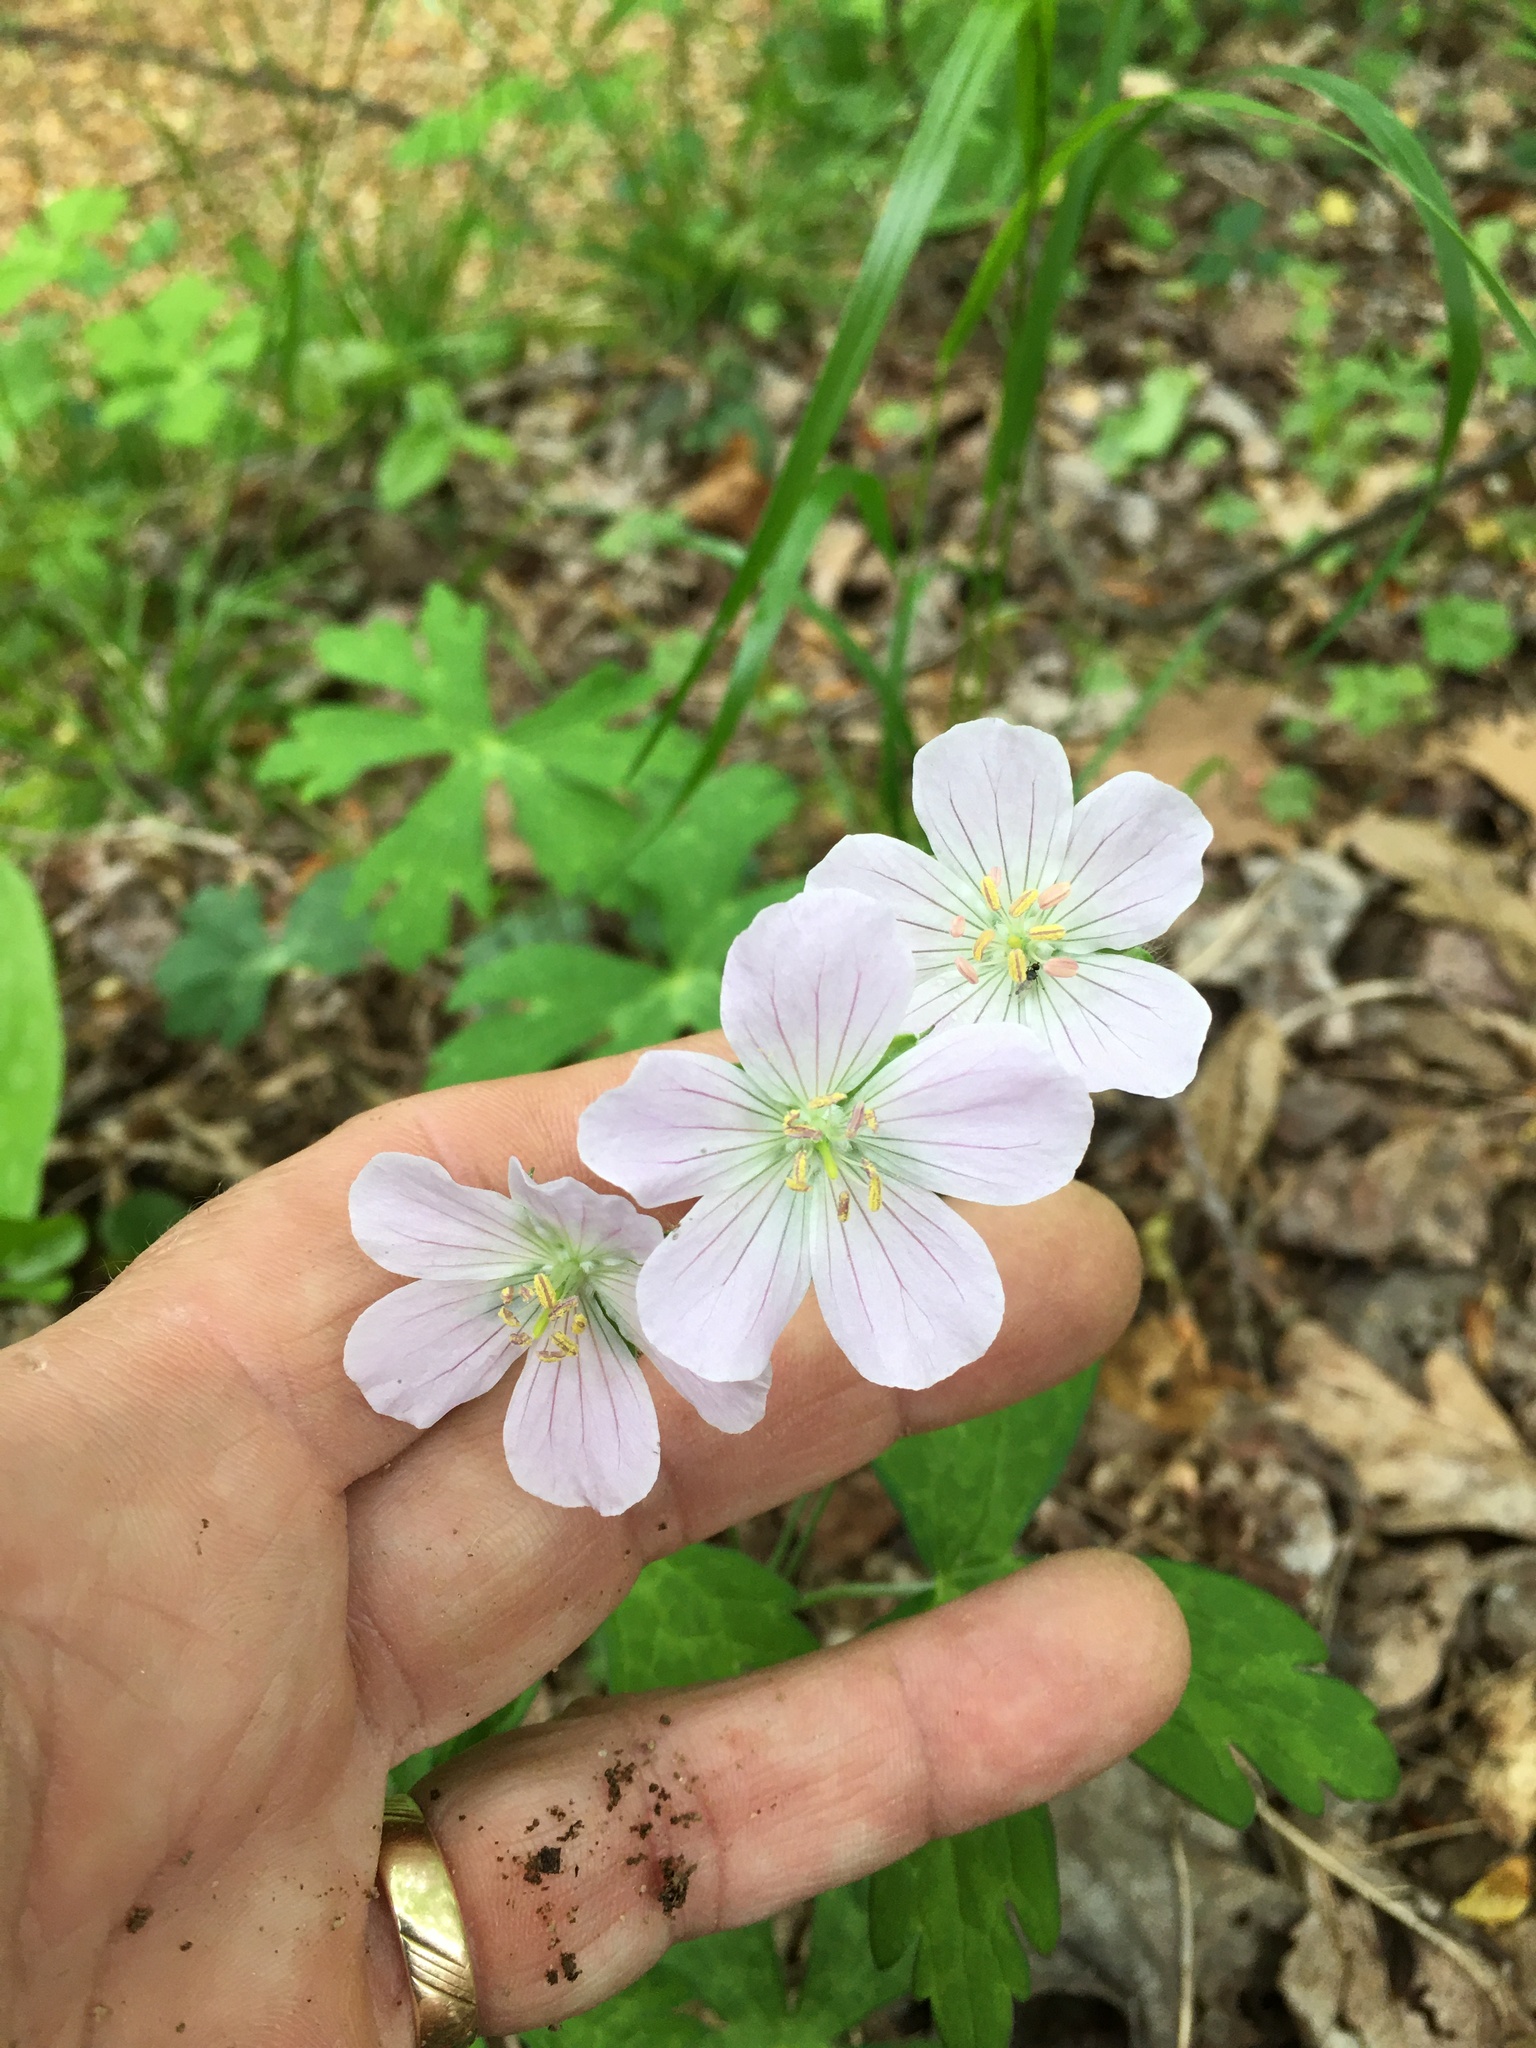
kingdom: Plantae
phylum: Tracheophyta
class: Magnoliopsida
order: Geraniales
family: Geraniaceae
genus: Geranium
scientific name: Geranium maculatum
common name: Spotted geranium
